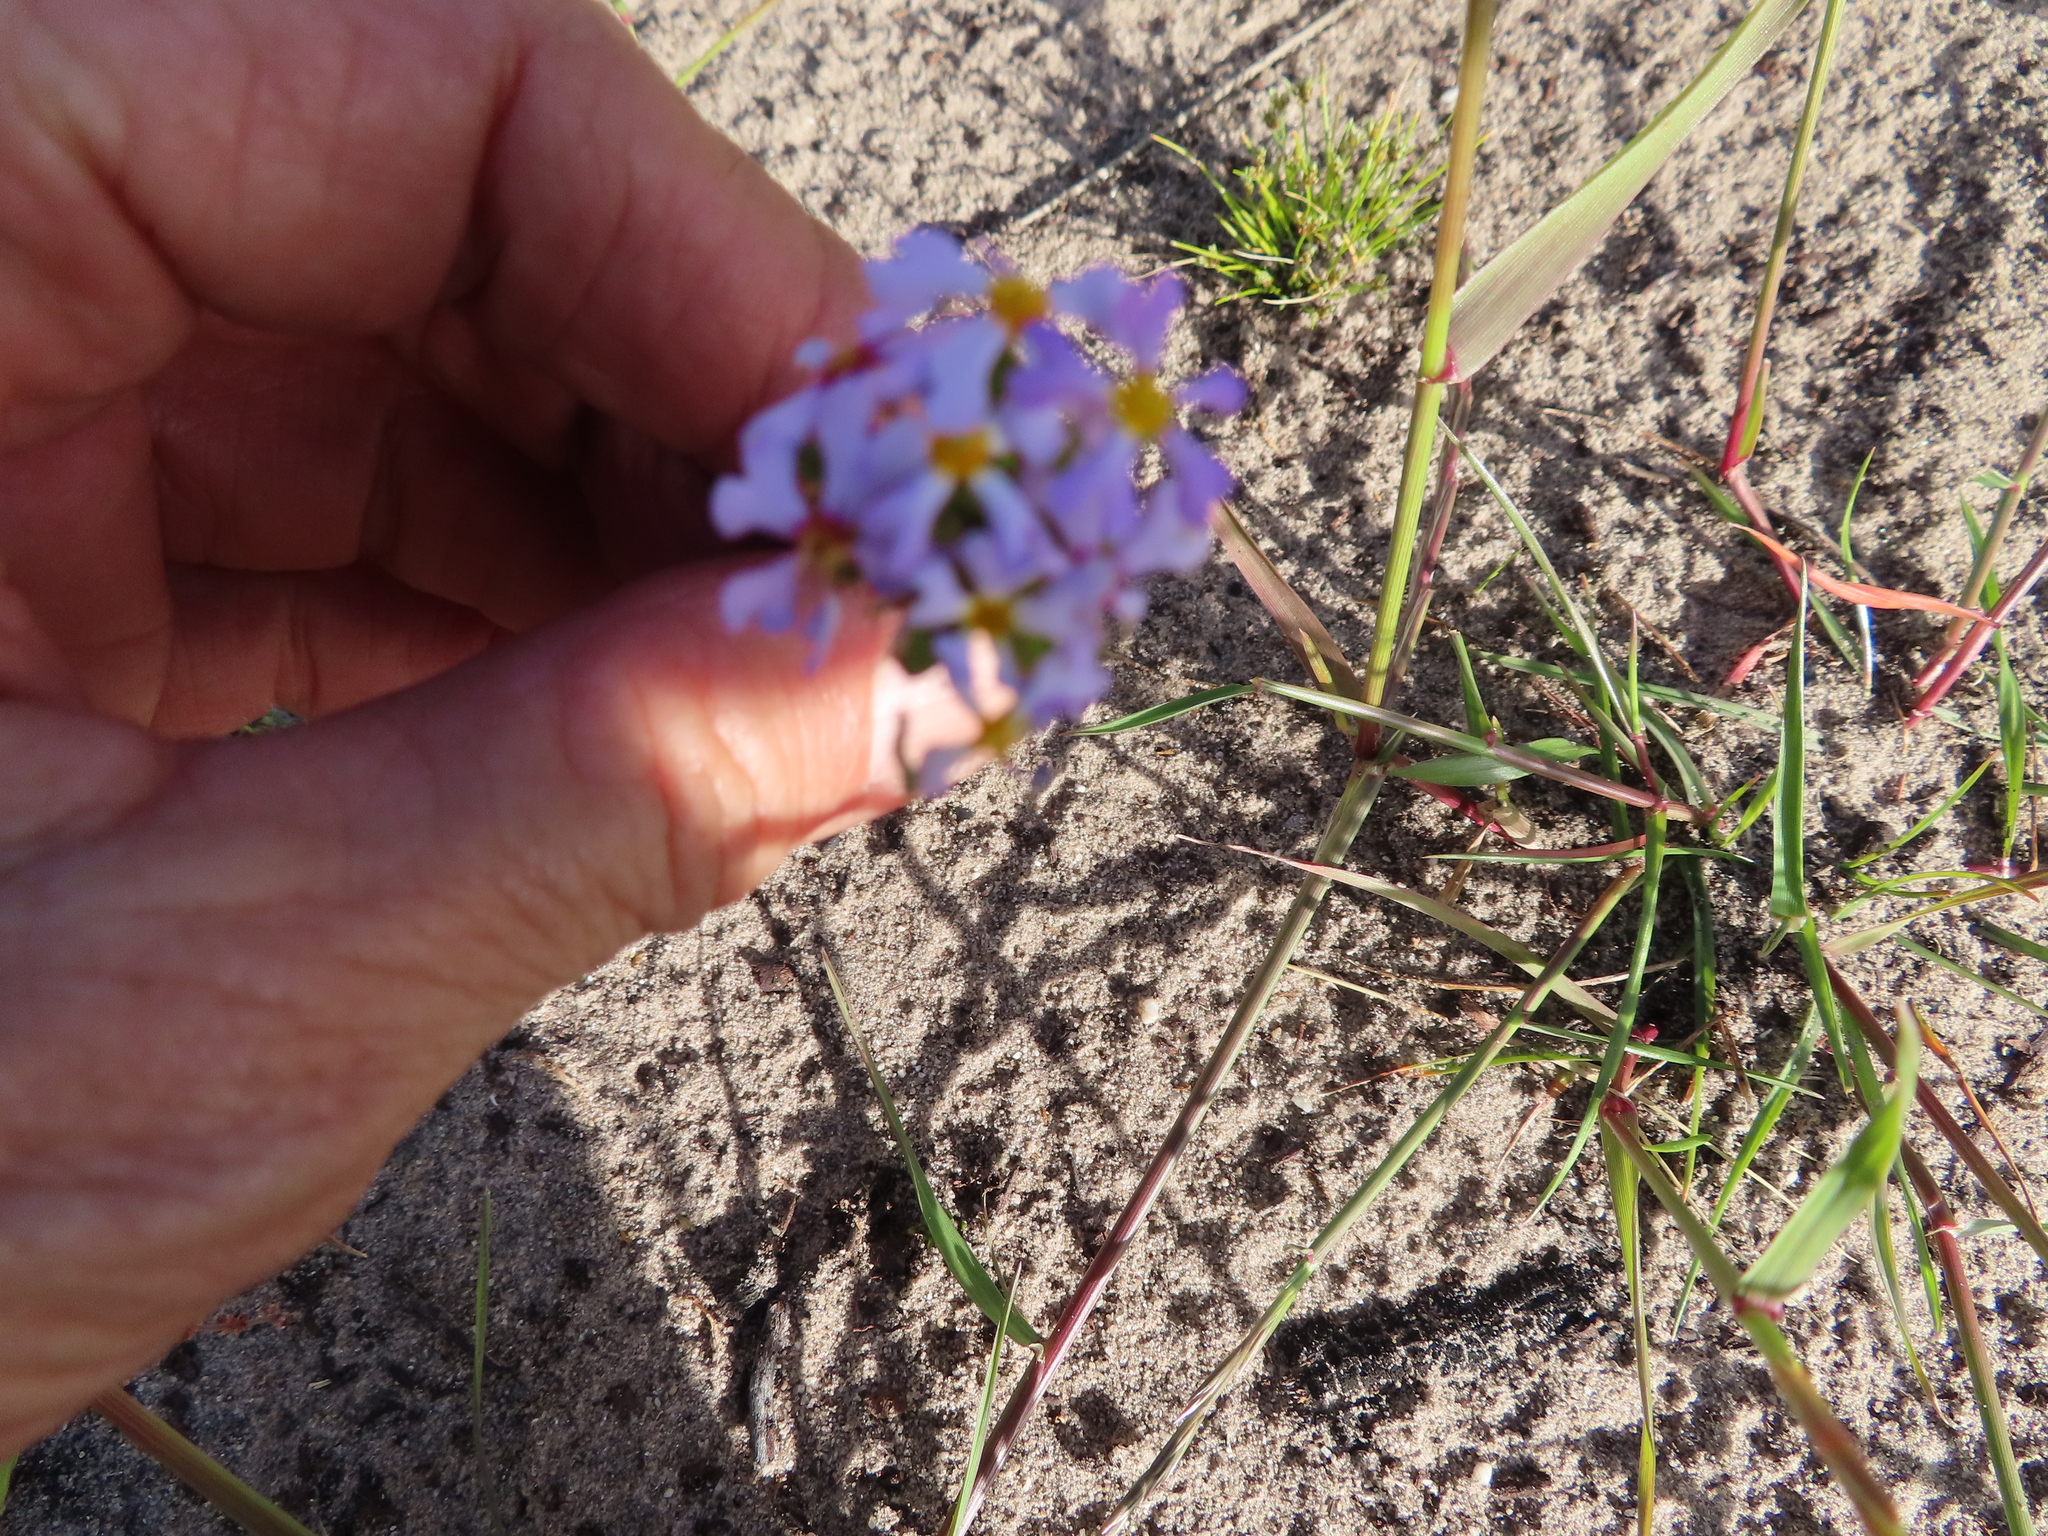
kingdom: Plantae
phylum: Tracheophyta
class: Magnoliopsida
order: Lamiales
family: Scrophulariaceae
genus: Zaluzianskya
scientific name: Zaluzianskya villosa
